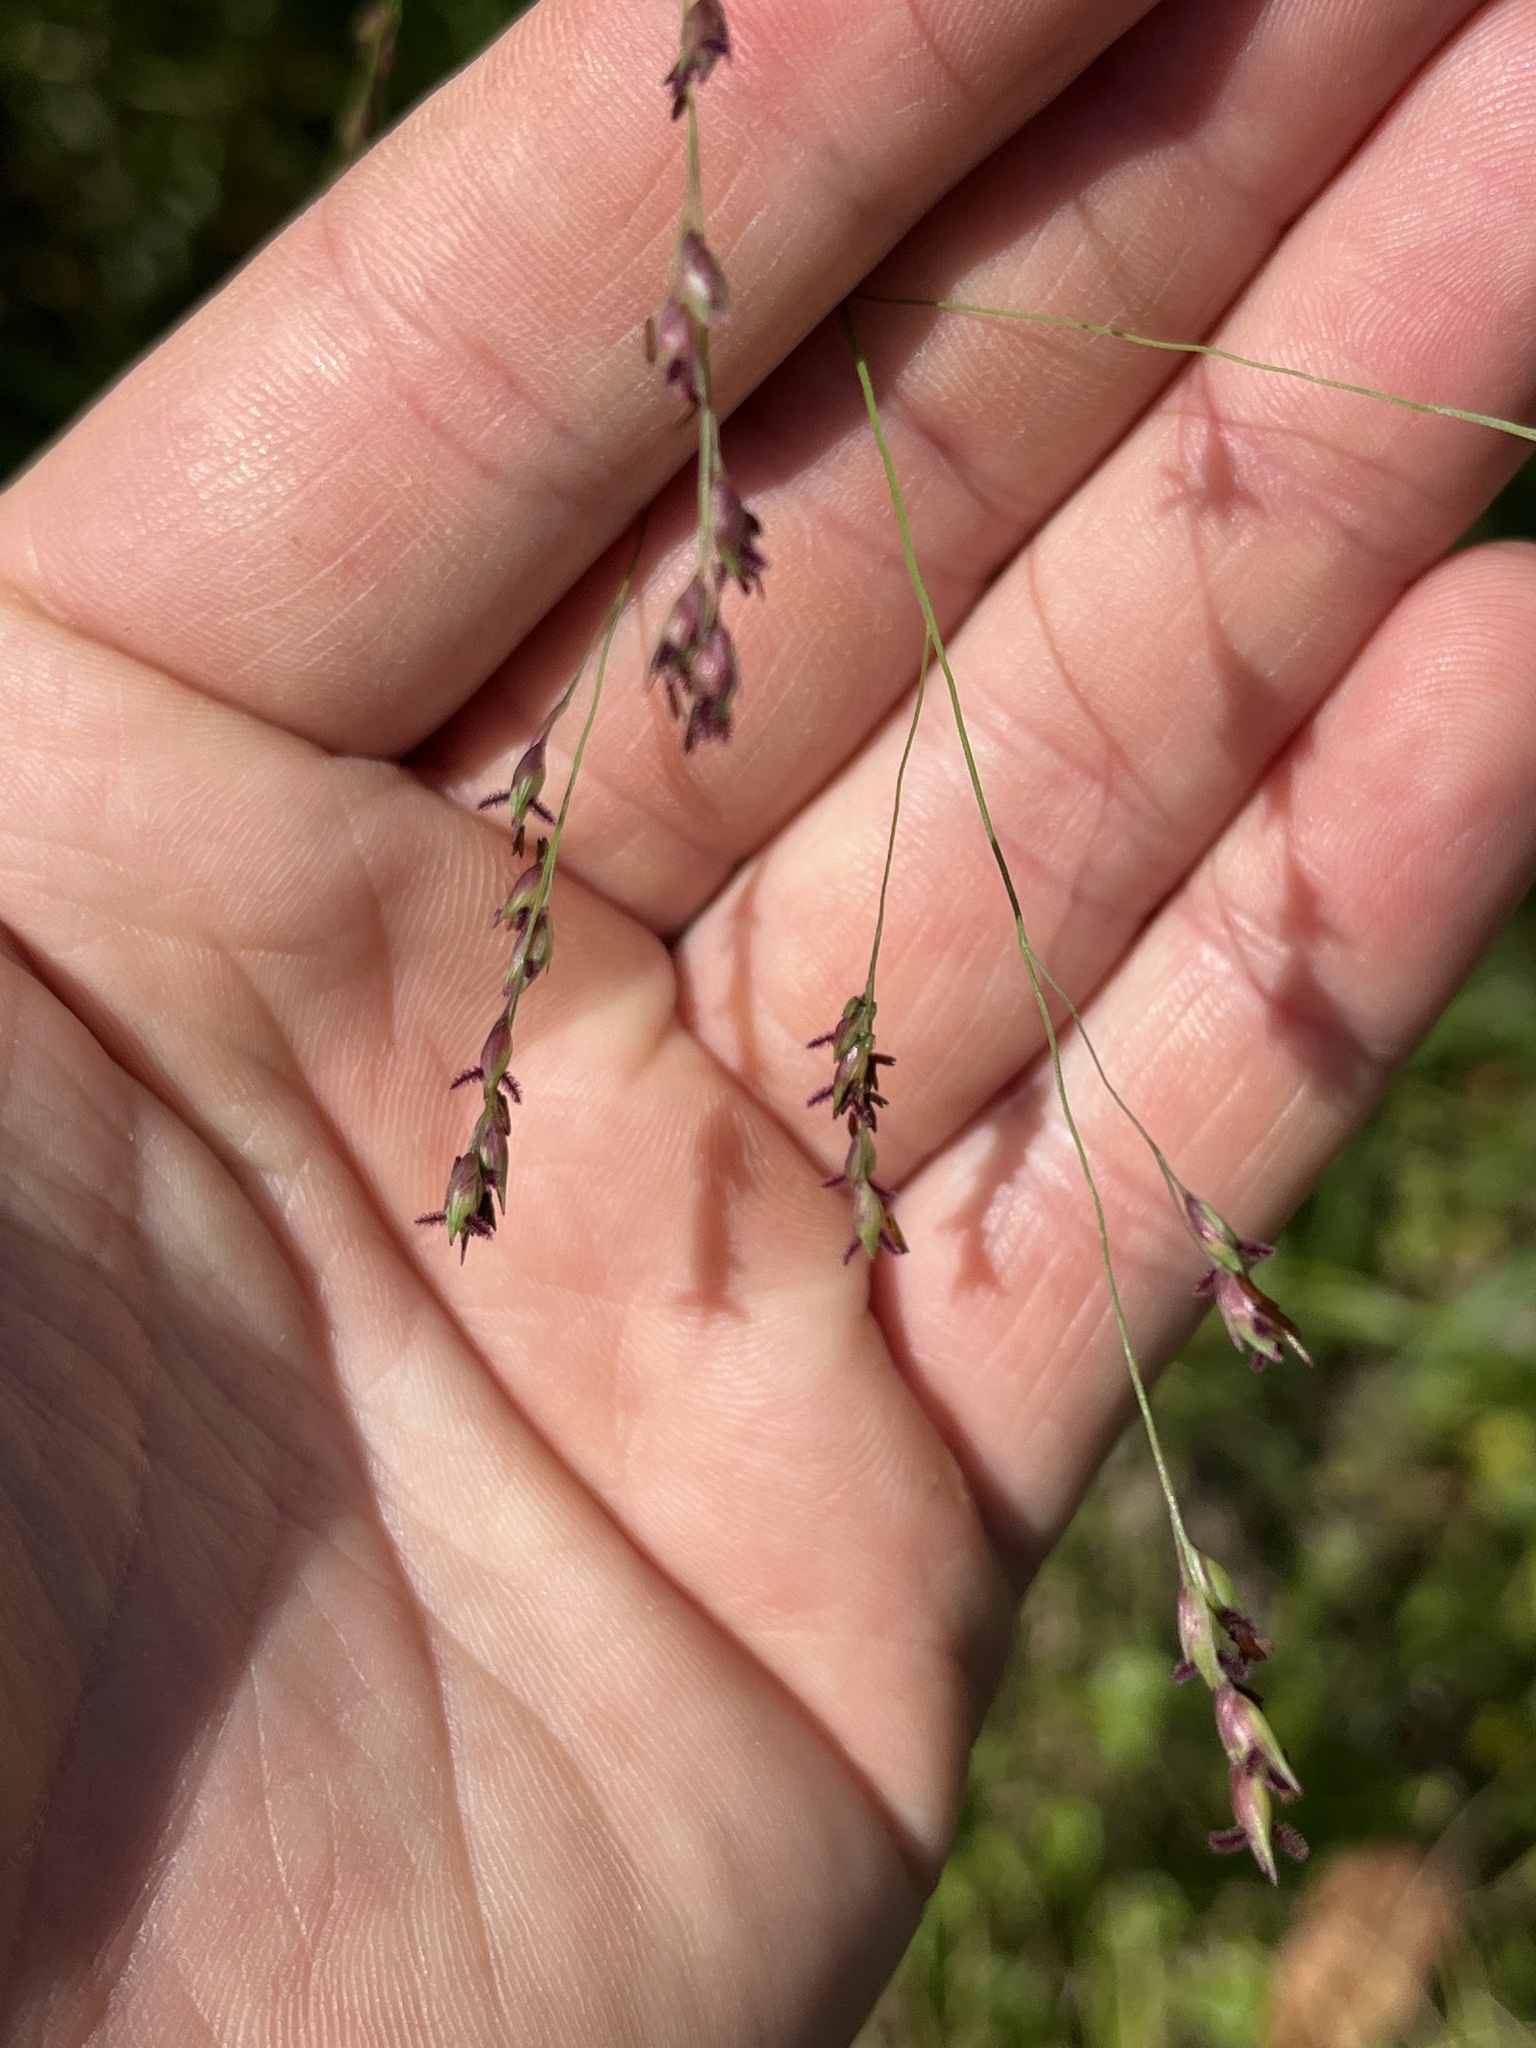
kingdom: Plantae
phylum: Tracheophyta
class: Liliopsida
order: Poales
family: Poaceae
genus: Panicum
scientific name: Panicum virgatum
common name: Switchgrass
